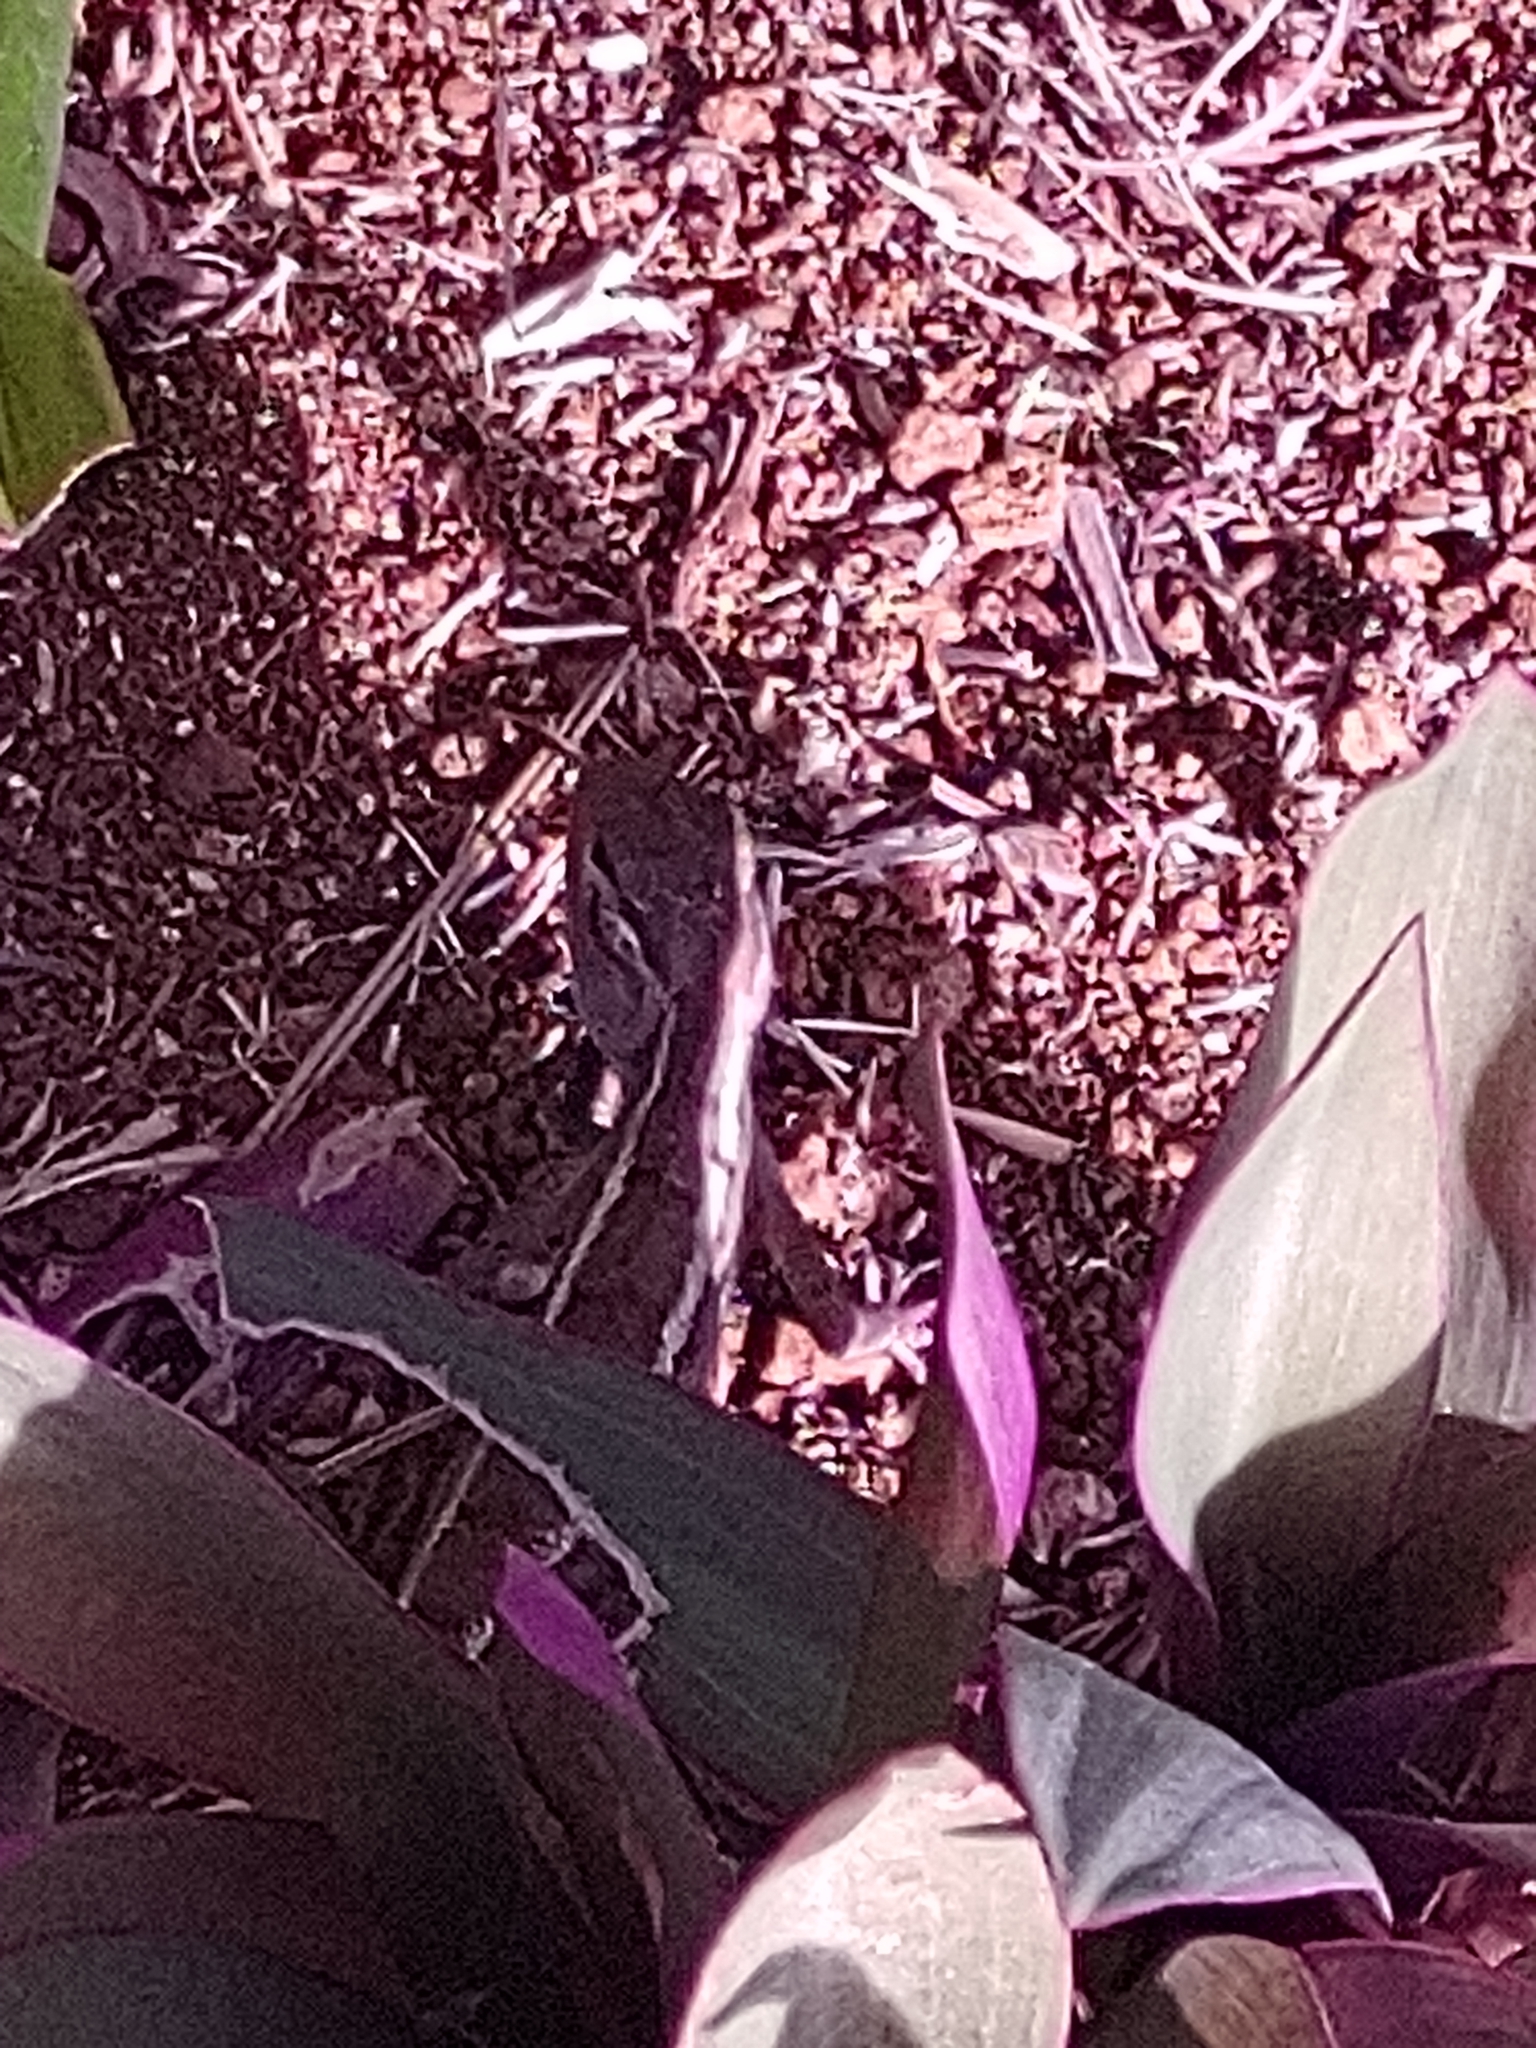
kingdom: Animalia
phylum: Chordata
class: Squamata
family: Agamidae
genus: Calotes
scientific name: Calotes versicolor
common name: Oriental garden lizard
